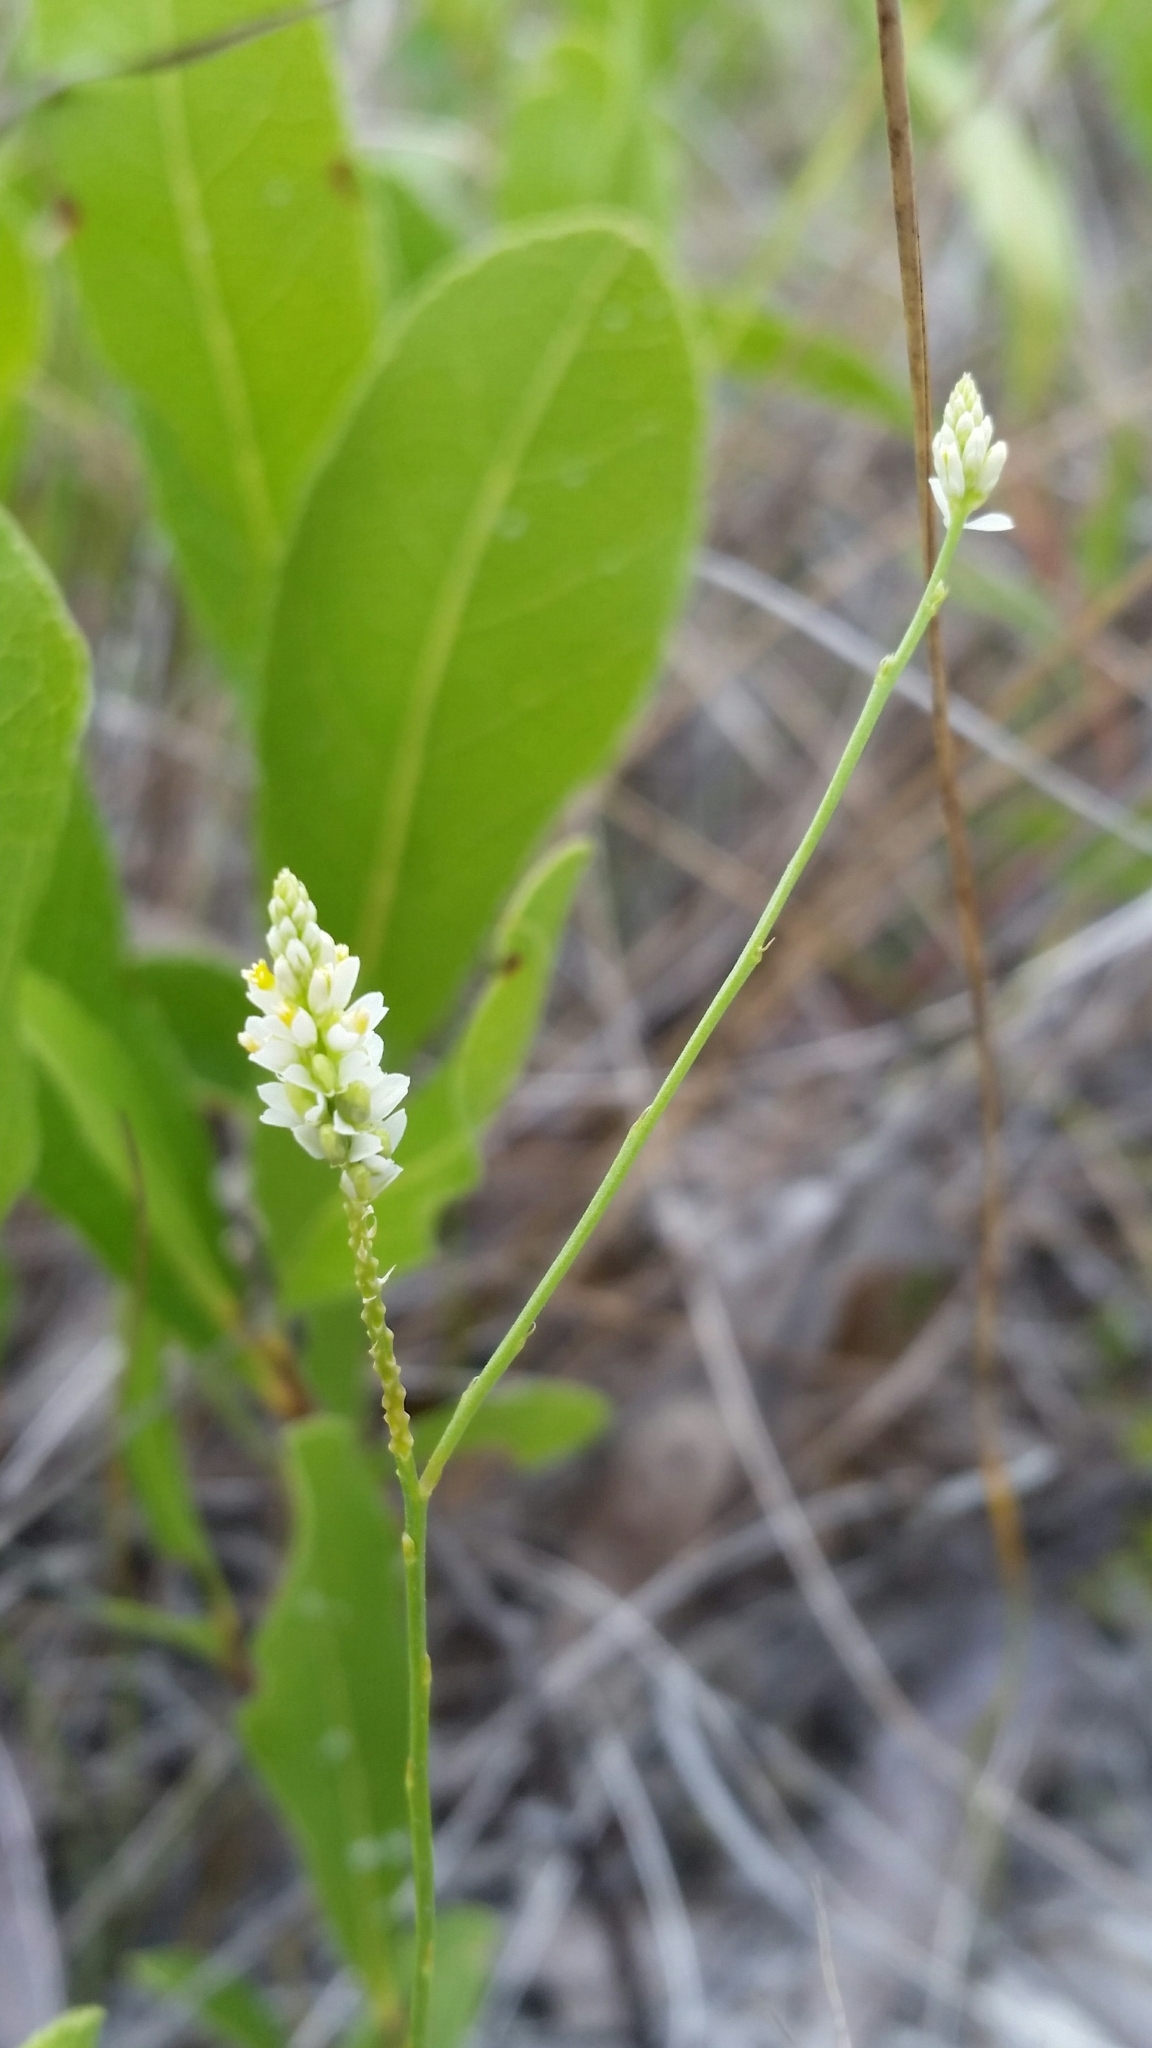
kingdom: Plantae
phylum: Tracheophyta
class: Magnoliopsida
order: Fabales
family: Polygalaceae
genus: Polygala
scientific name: Polygala setacea
